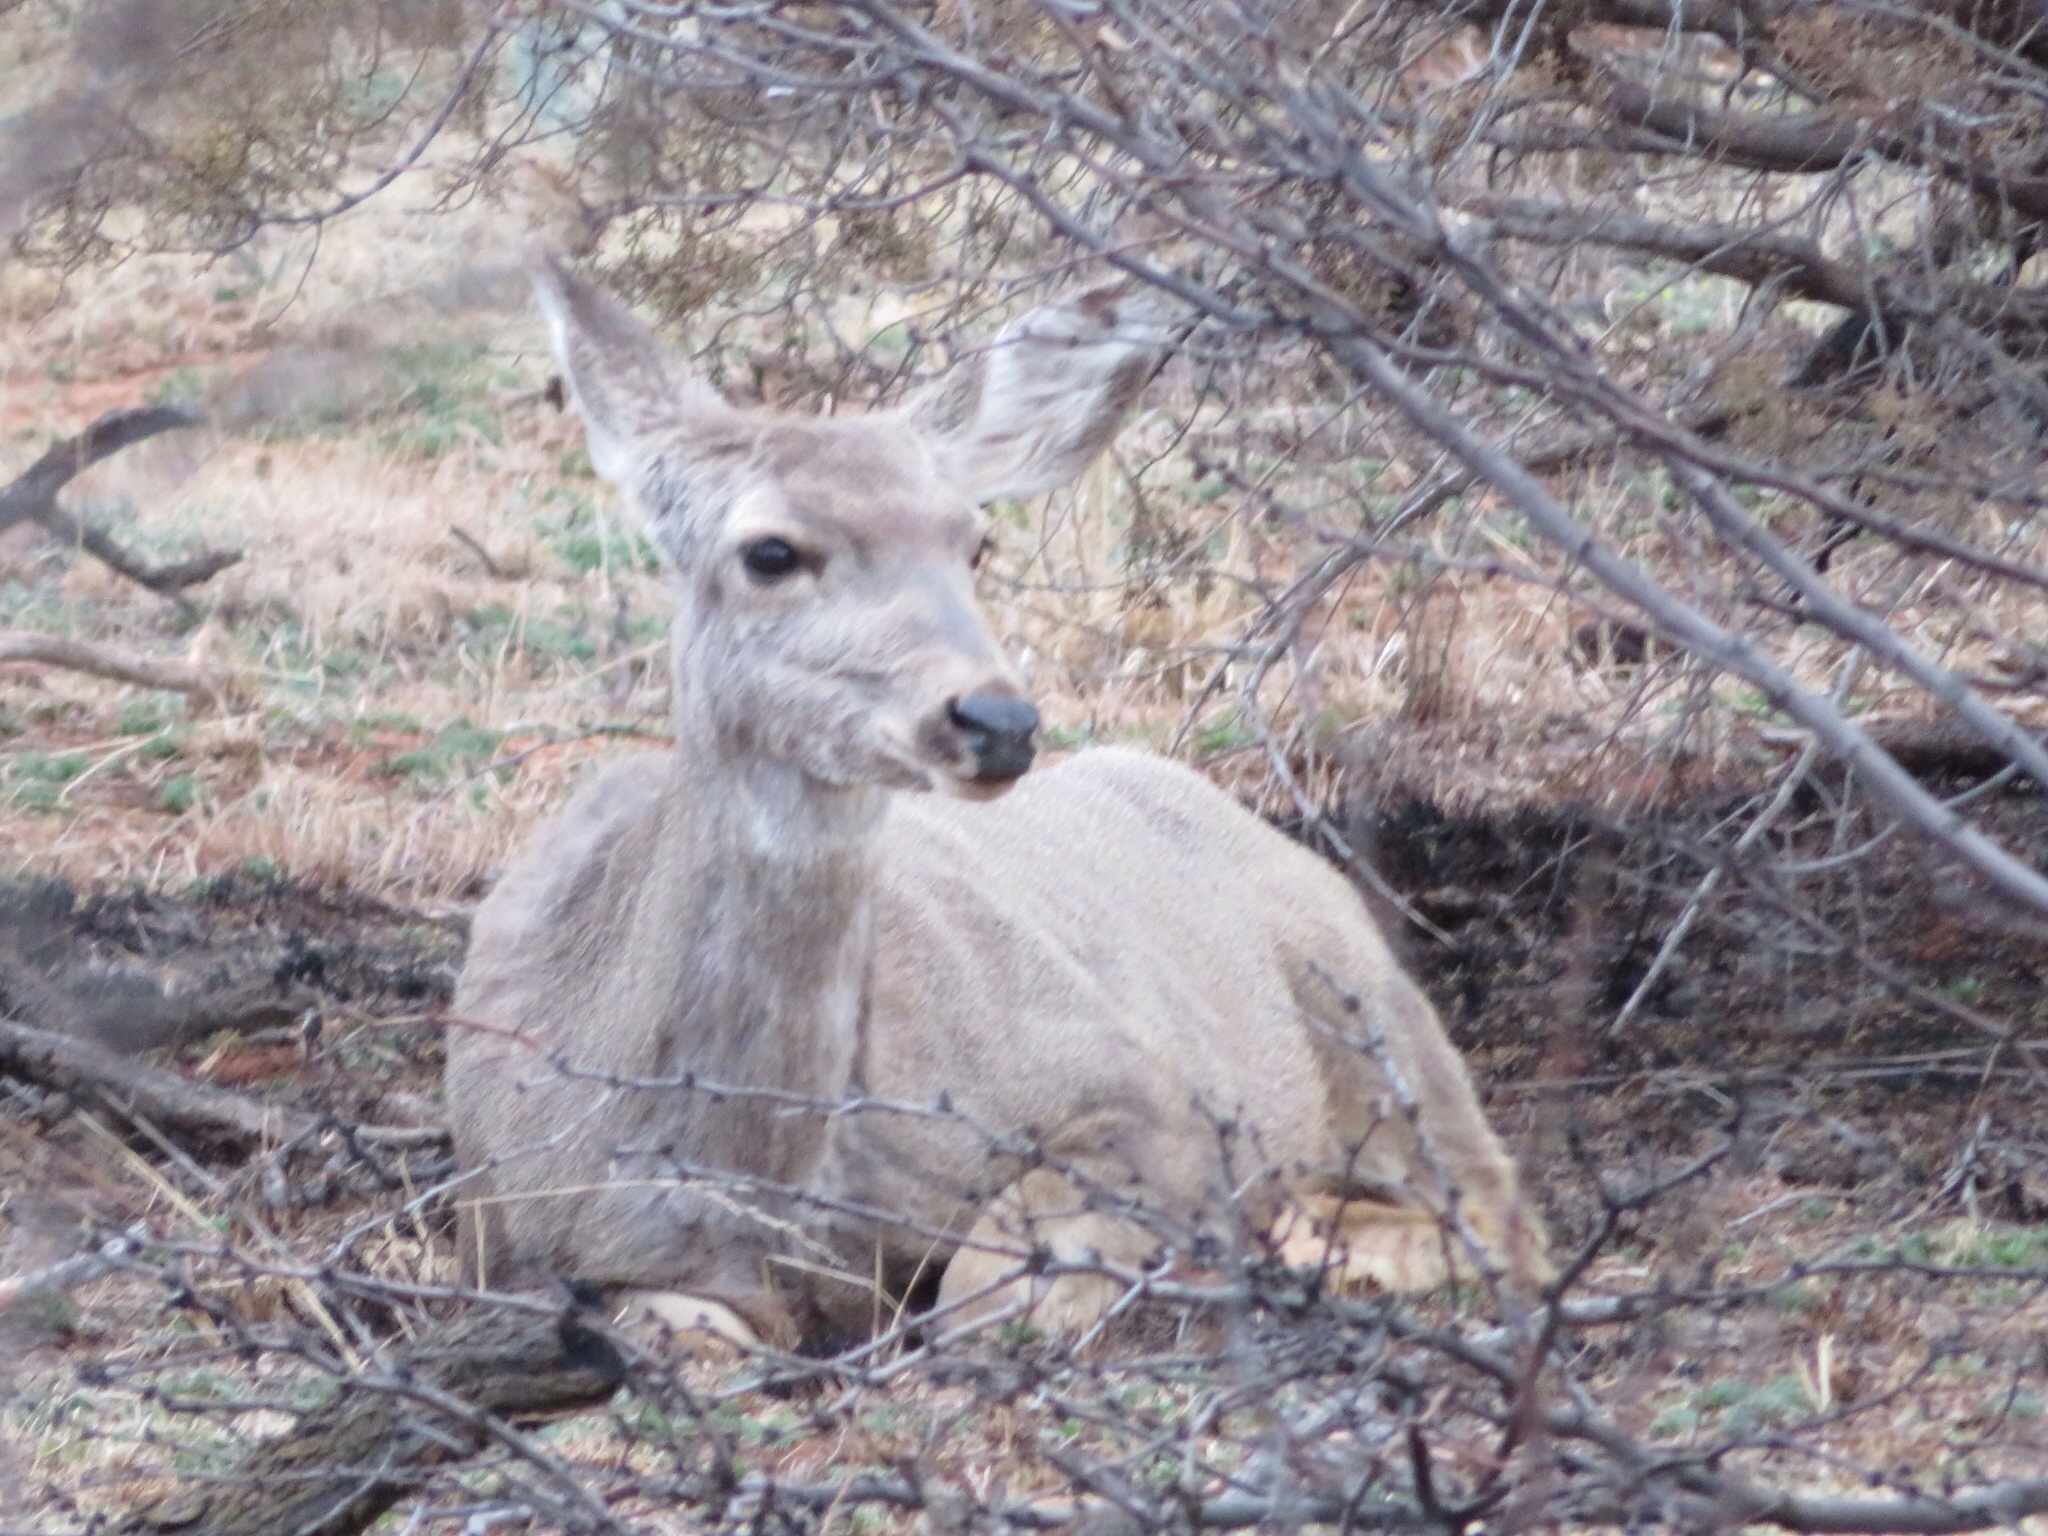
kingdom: Animalia
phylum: Chordata
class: Mammalia
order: Artiodactyla
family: Cervidae
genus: Odocoileus
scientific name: Odocoileus hemionus
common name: Mule deer
